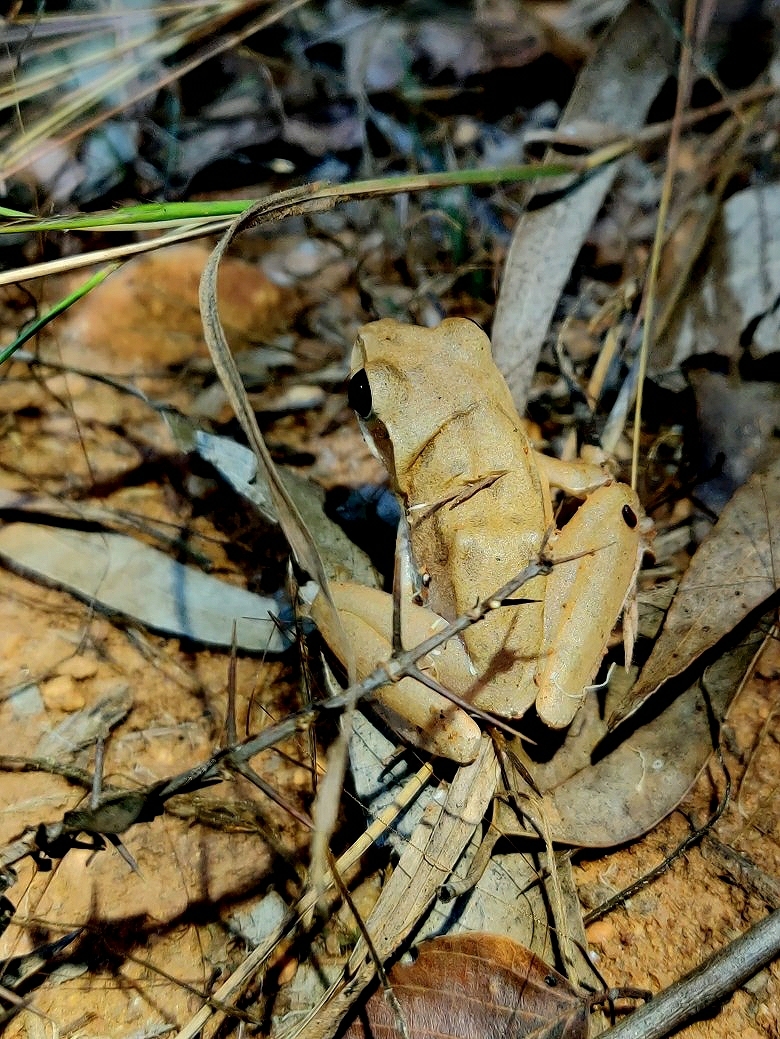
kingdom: Animalia
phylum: Chordata
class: Amphibia
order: Anura
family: Rhacophoridae
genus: Polypedates
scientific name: Polypedates maculatus
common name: Himalayan tree frog
